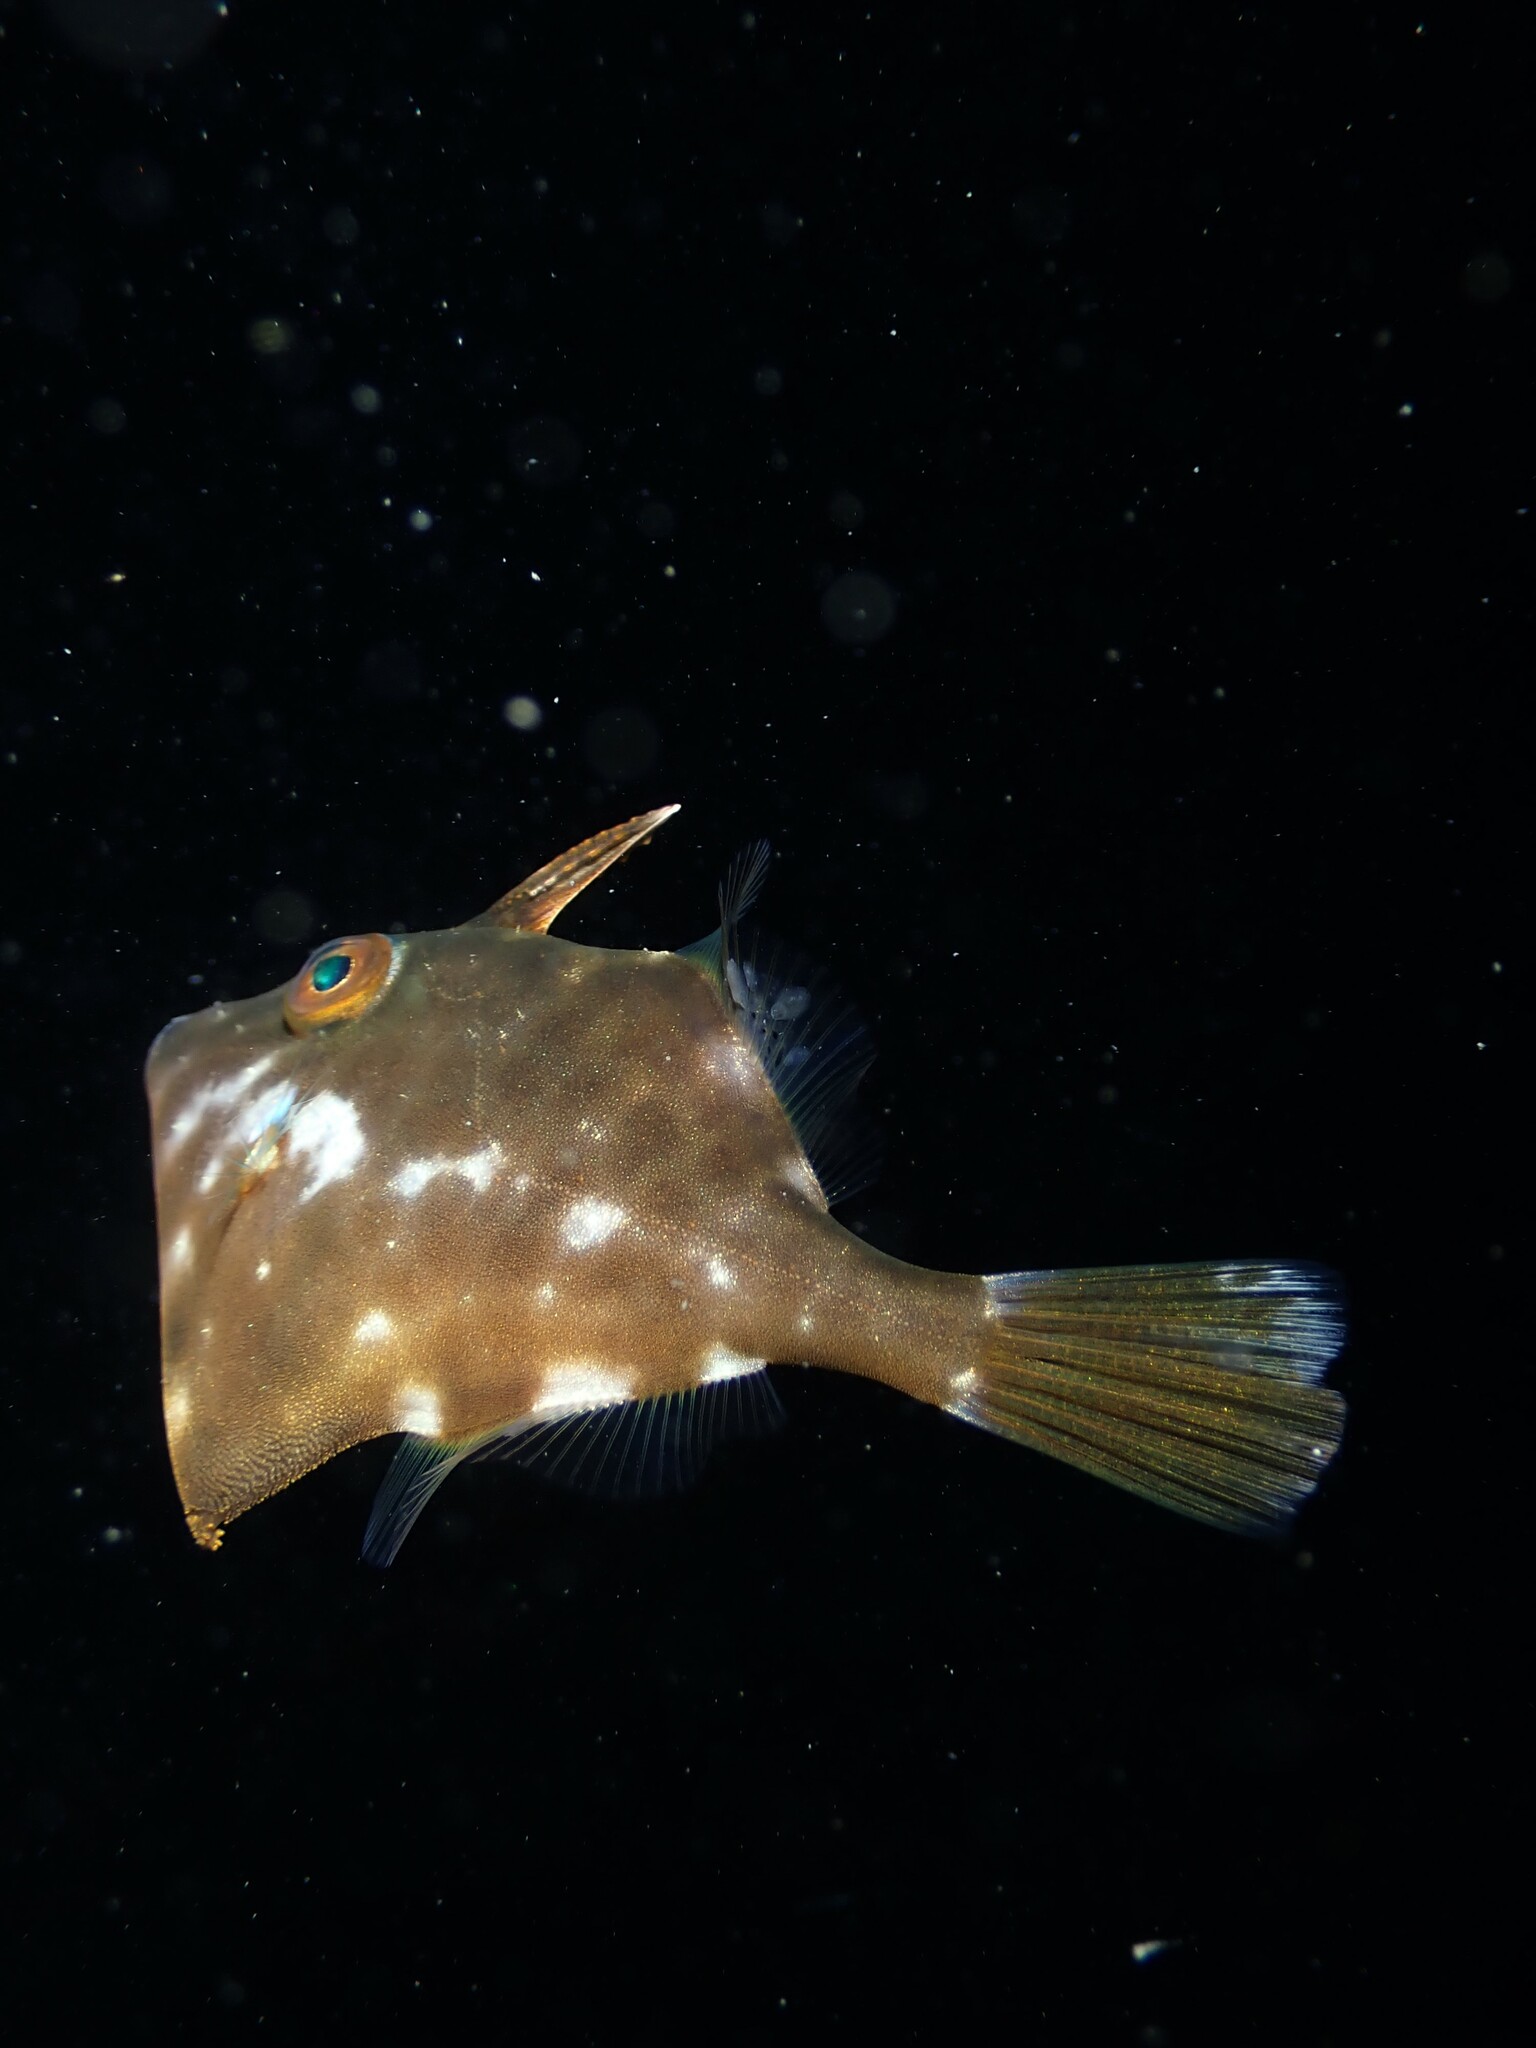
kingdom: Animalia
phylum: Chordata
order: Tetraodontiformes
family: Monacanthidae
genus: Meuschenia
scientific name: Meuschenia scaber
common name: Cosmopolitan leatherjacket
